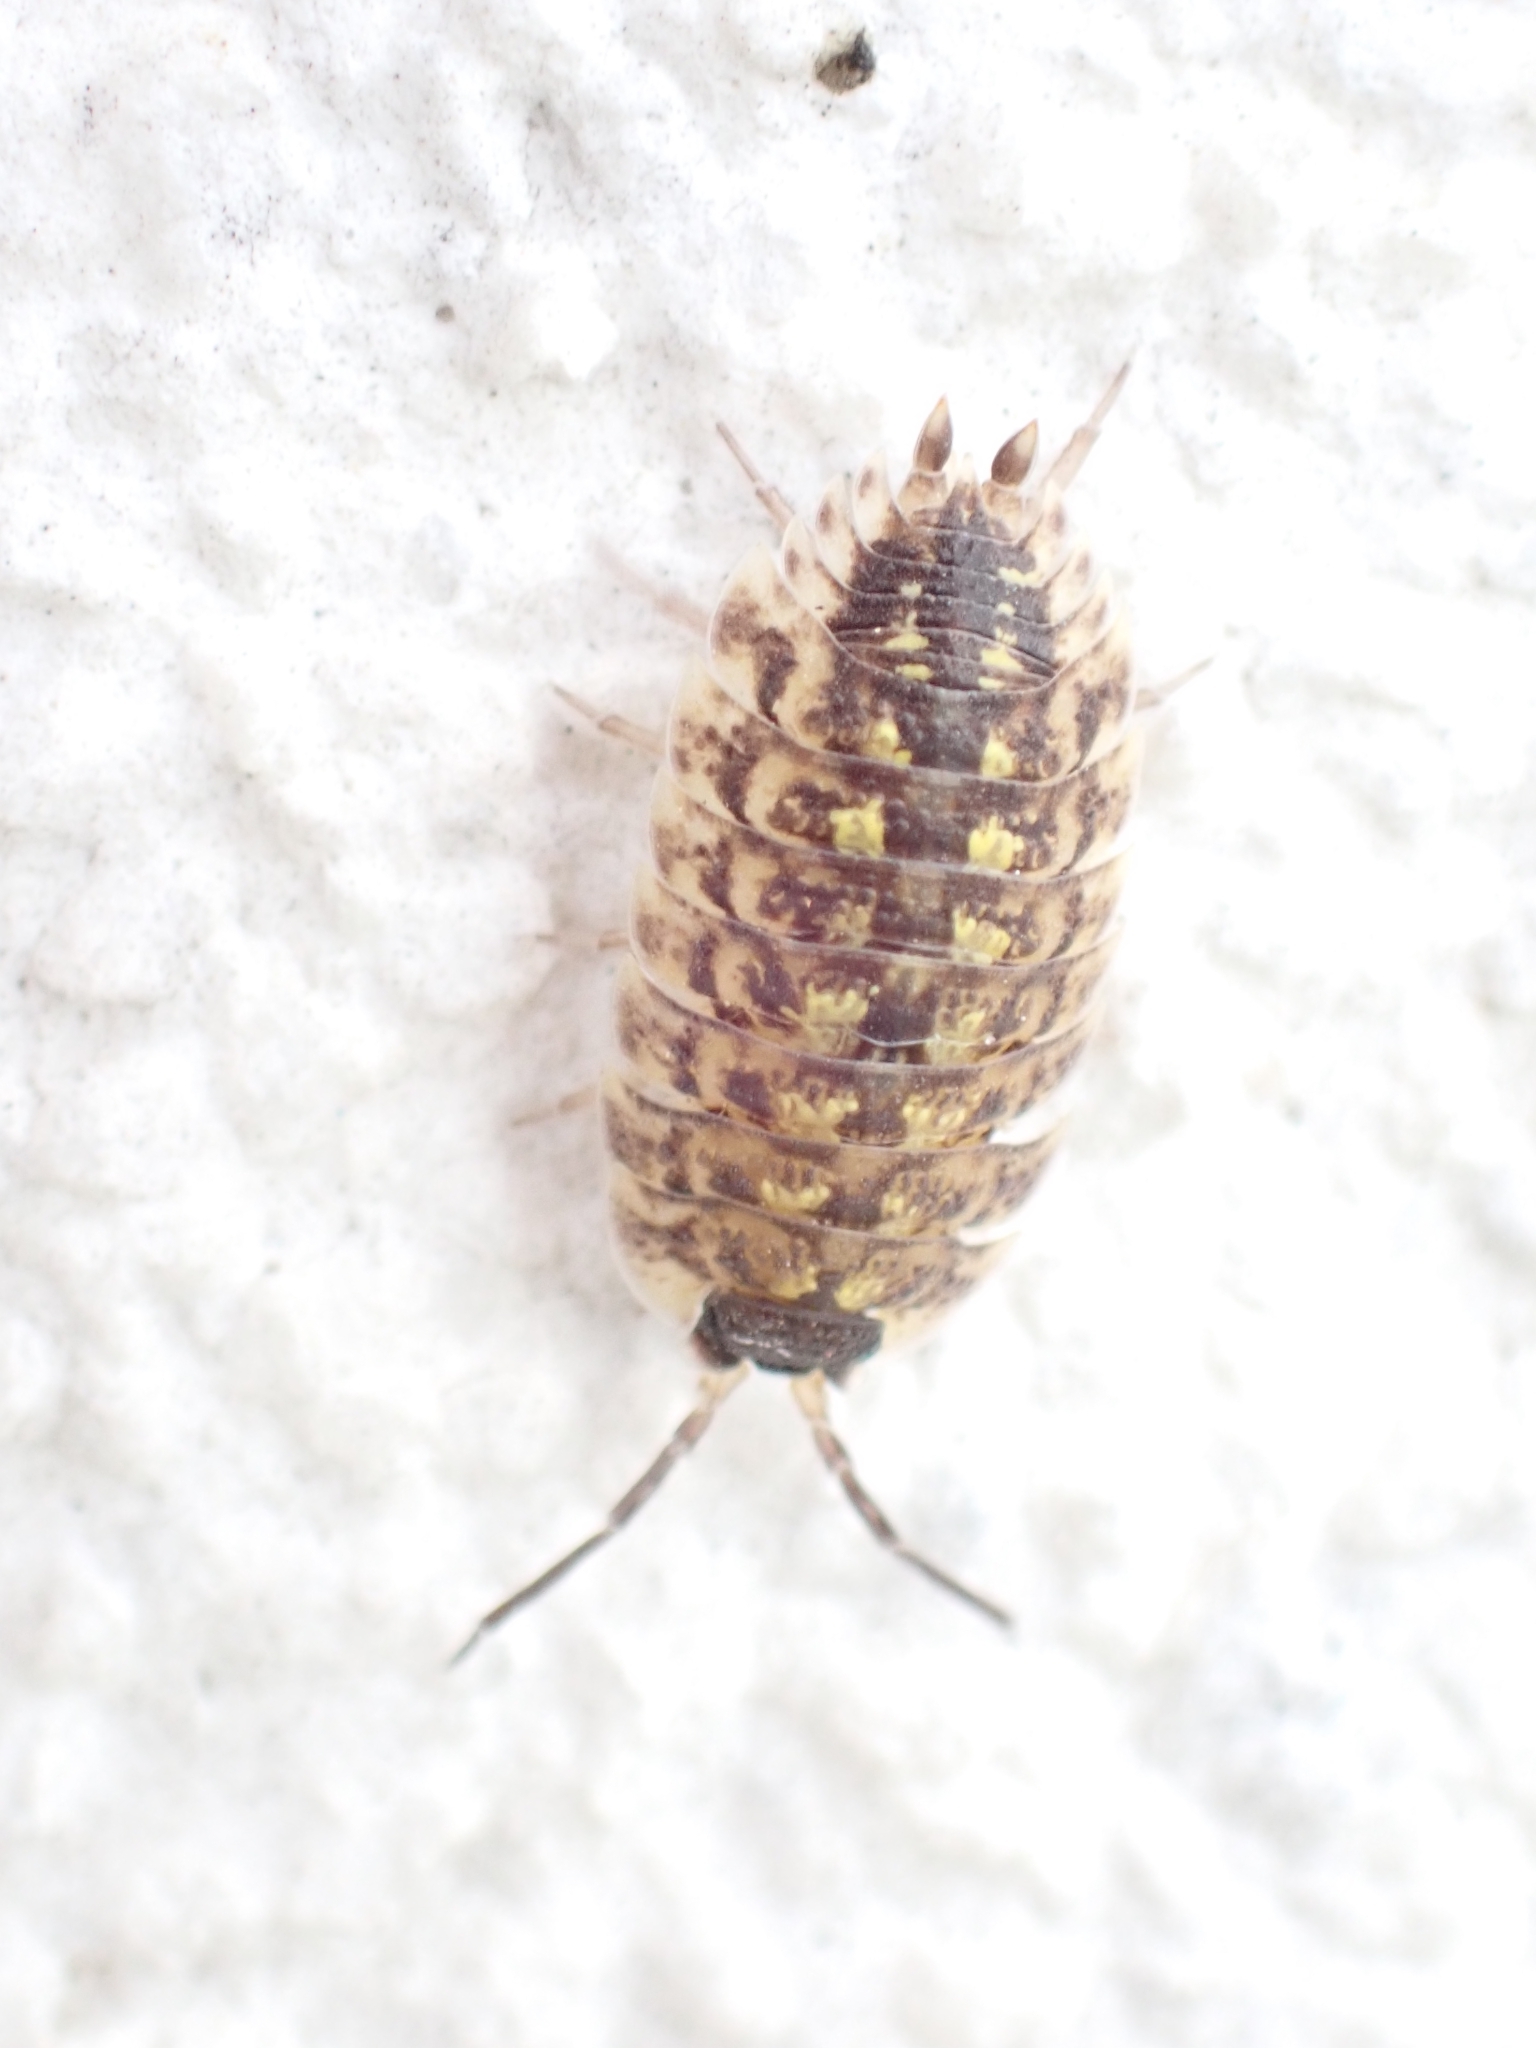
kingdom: Animalia
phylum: Arthropoda
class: Malacostraca
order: Isopoda
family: Porcellionidae
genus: Porcellio
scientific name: Porcellio spinicornis
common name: Painted woodlouse
